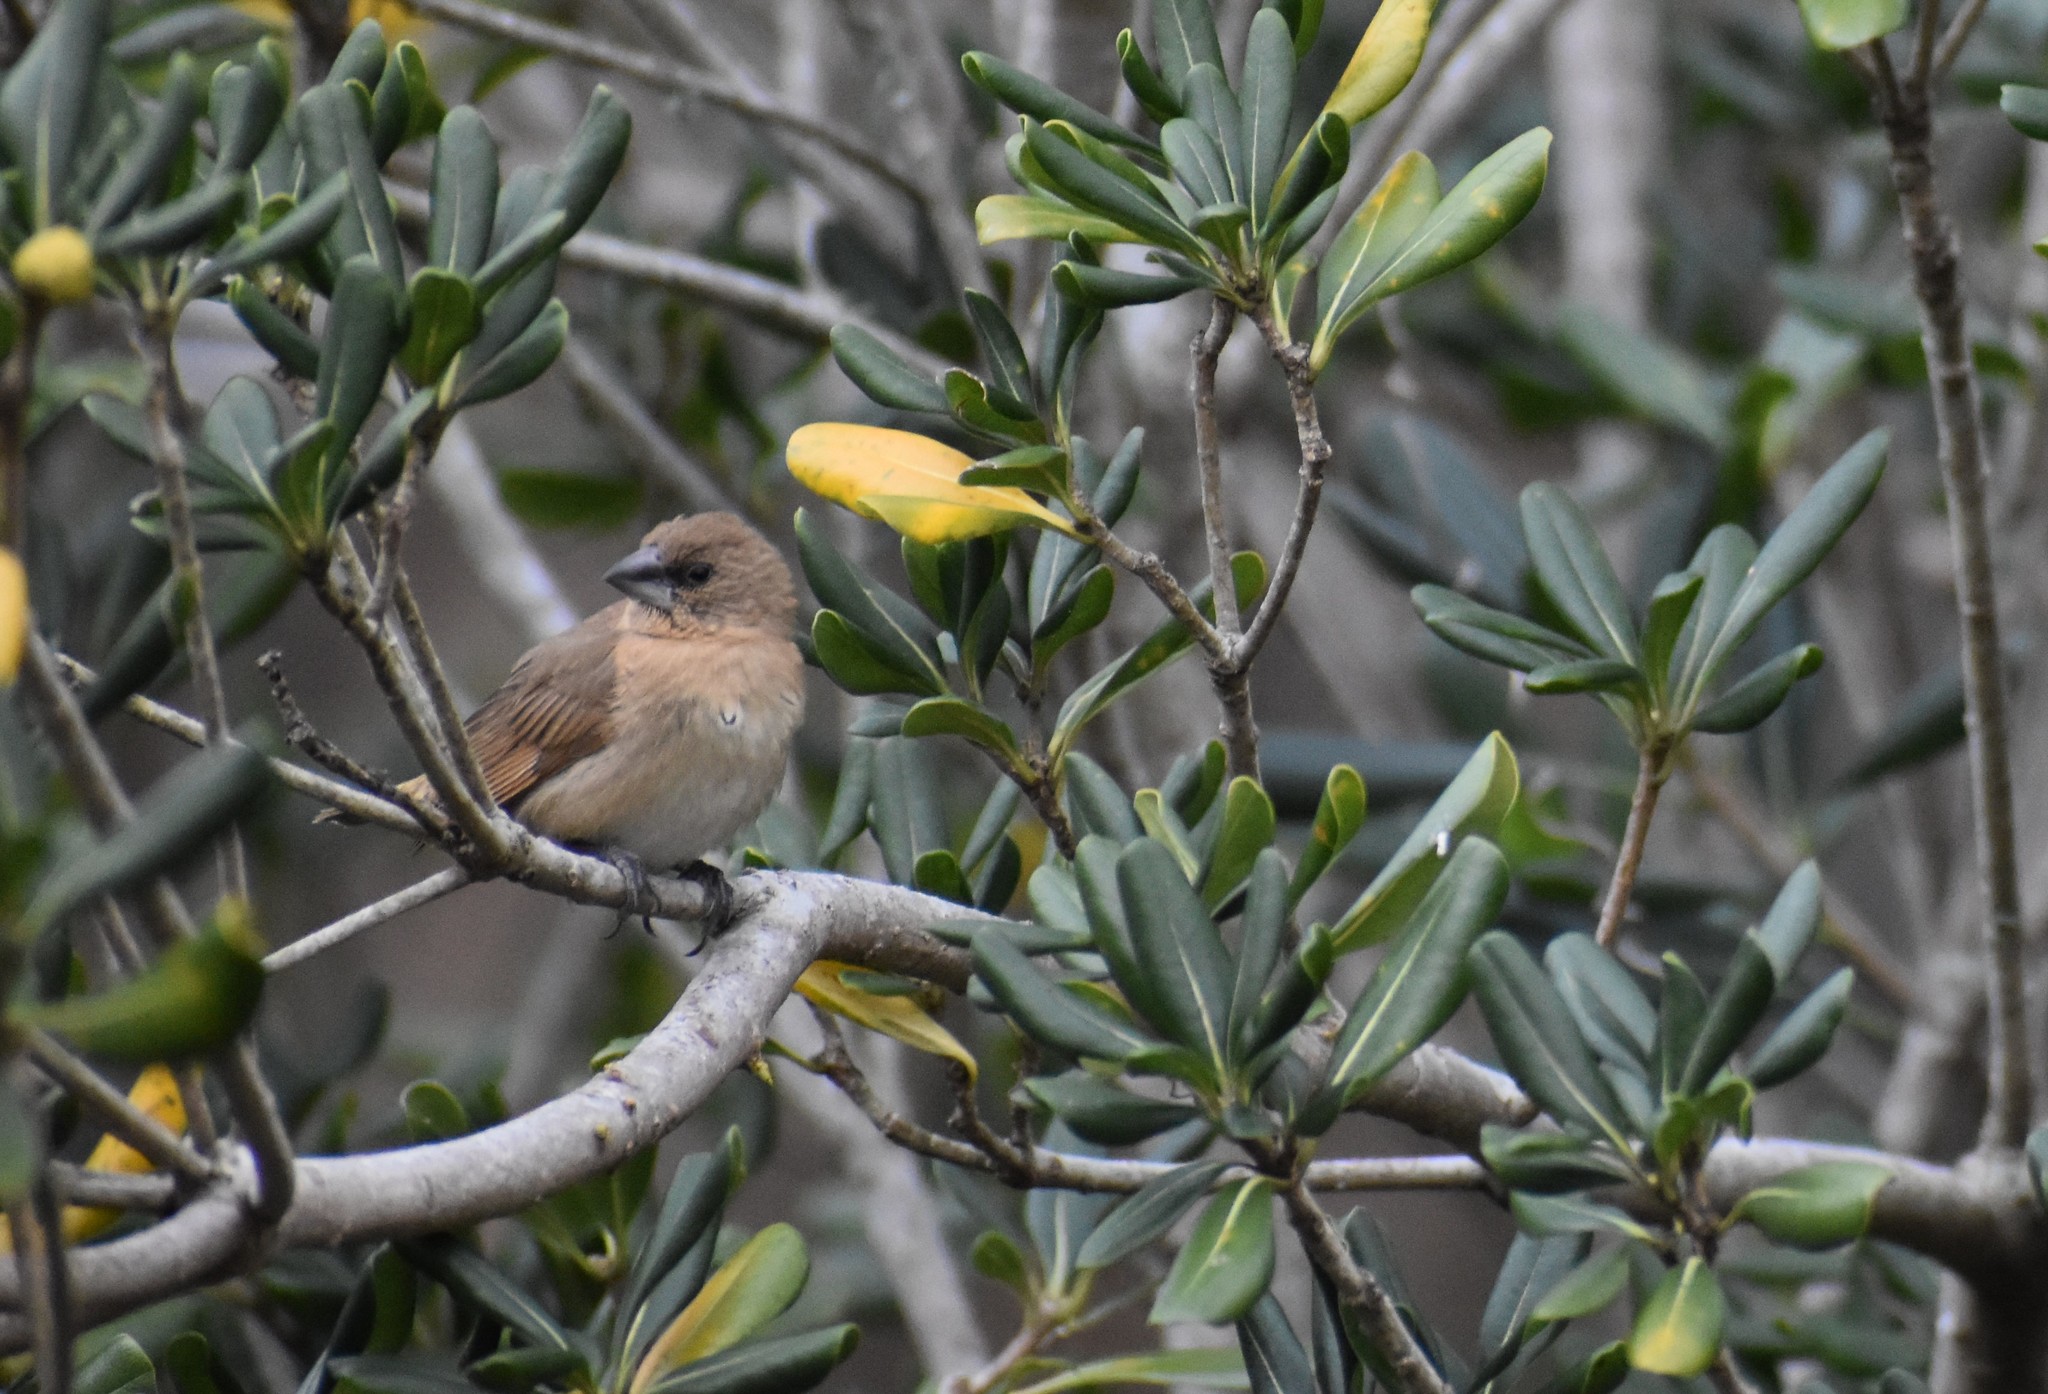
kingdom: Animalia
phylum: Chordata
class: Aves
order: Passeriformes
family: Estrildidae
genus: Lonchura
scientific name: Lonchura punctulata
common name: Scaly-breasted munia
